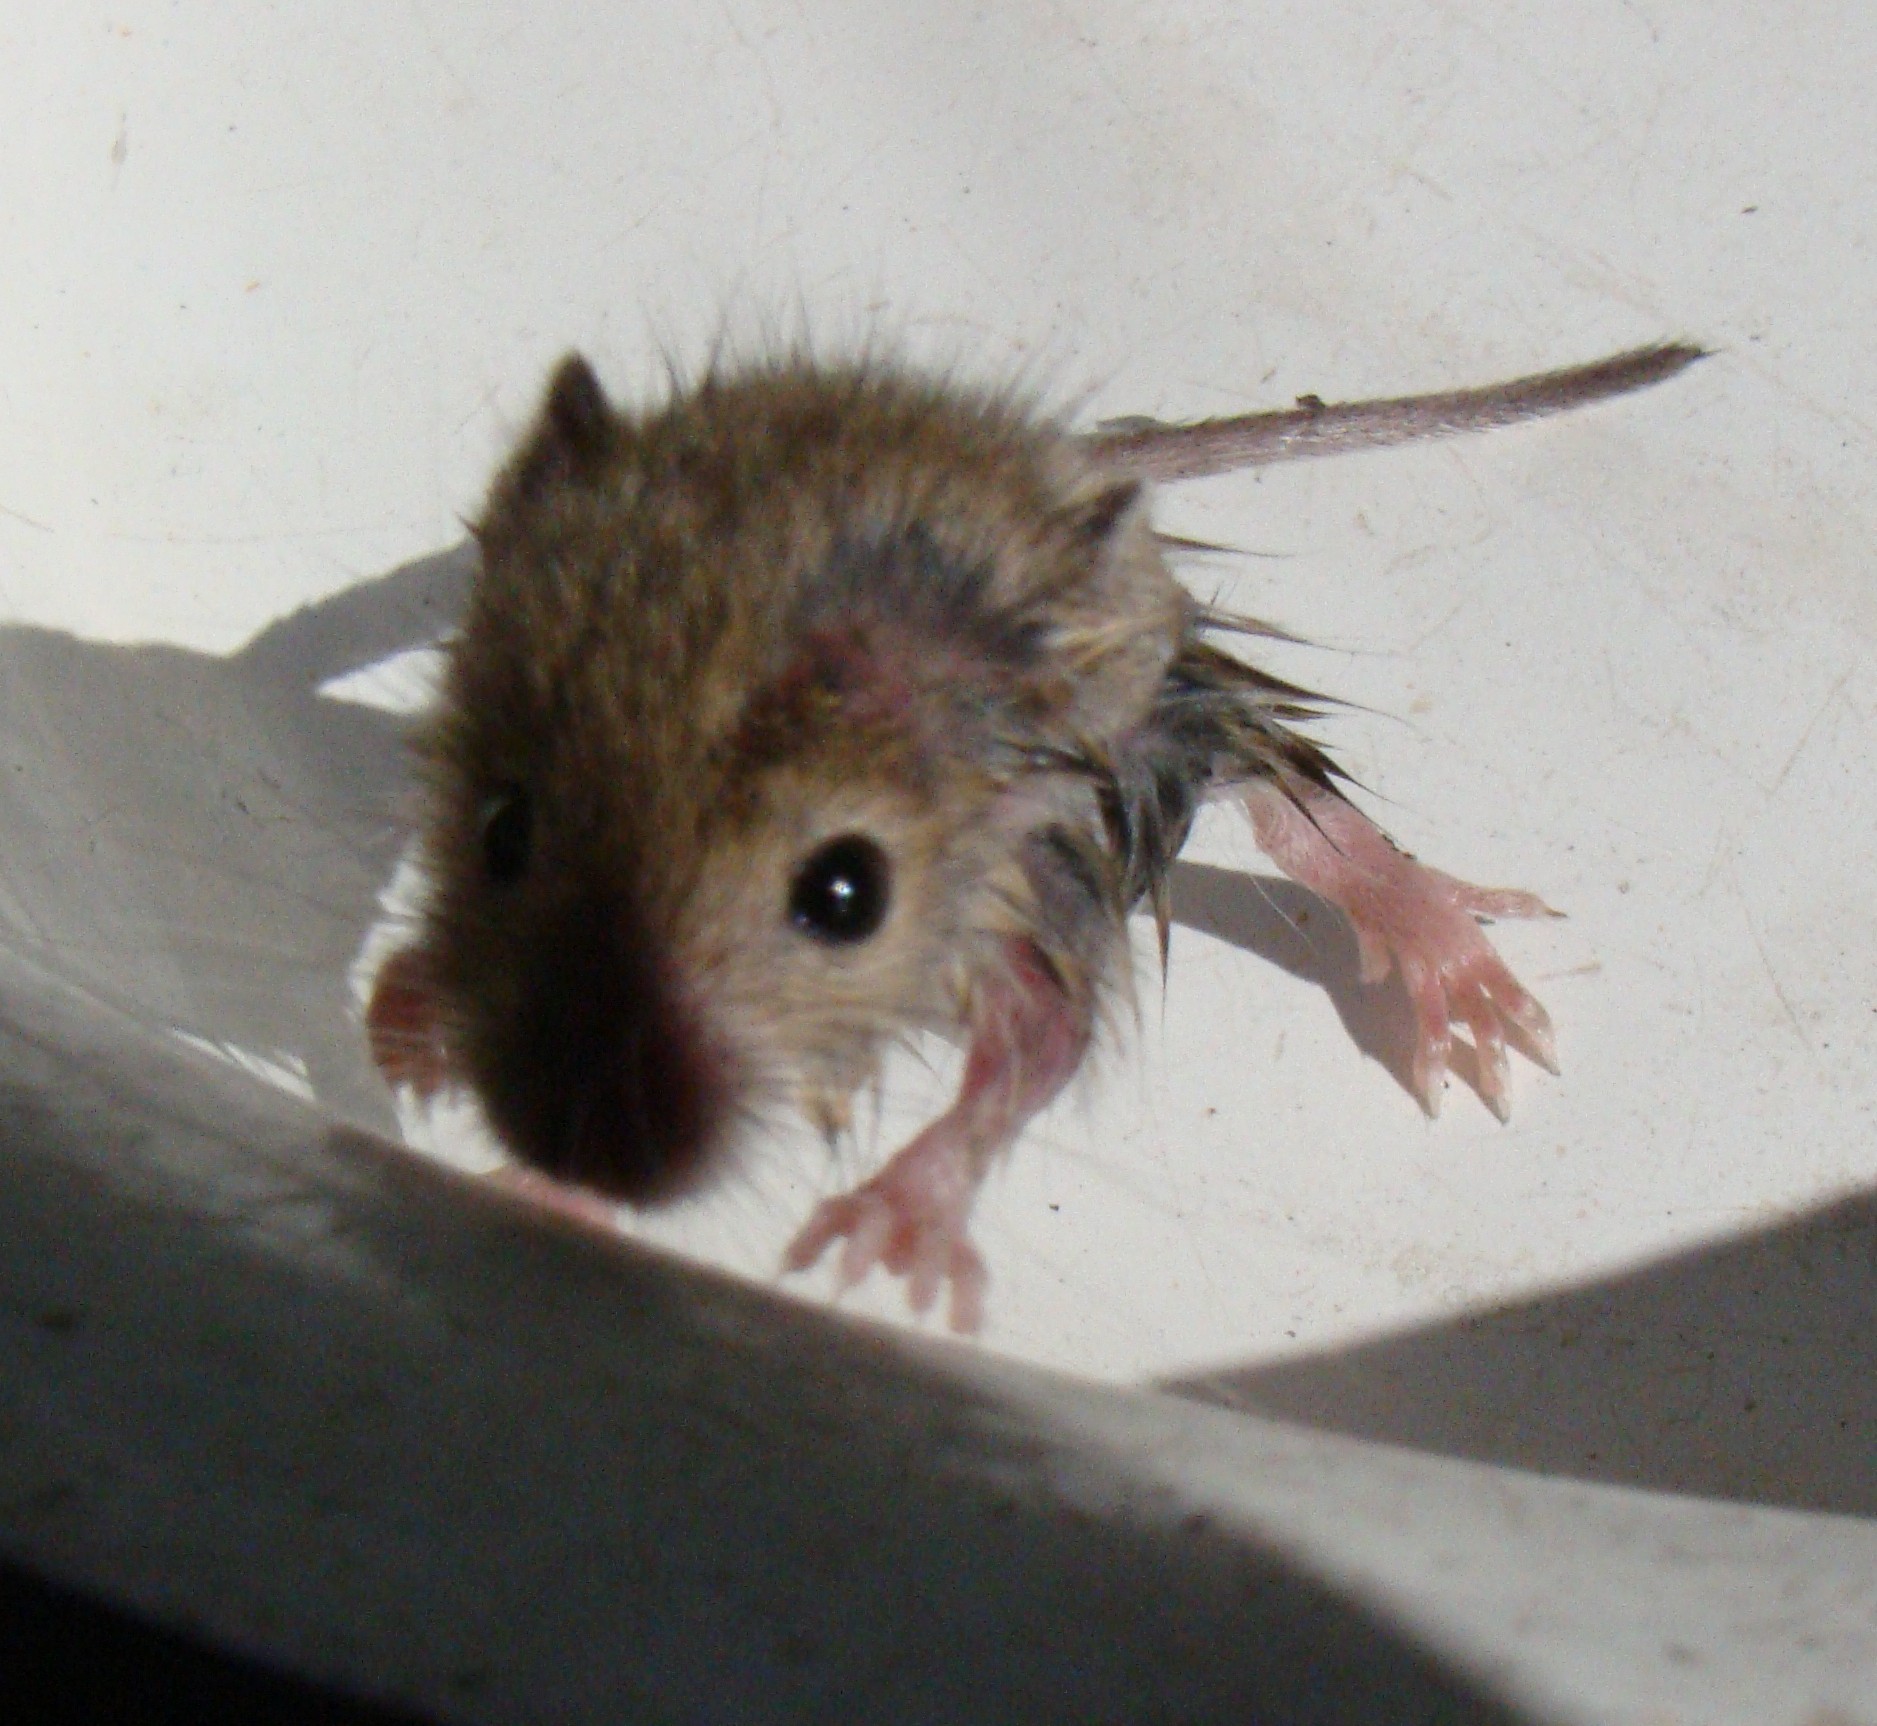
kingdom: Animalia
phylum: Chordata
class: Mammalia
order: Rodentia
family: Muridae
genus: Rattus
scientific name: Rattus norvegicus
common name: Brown rat
